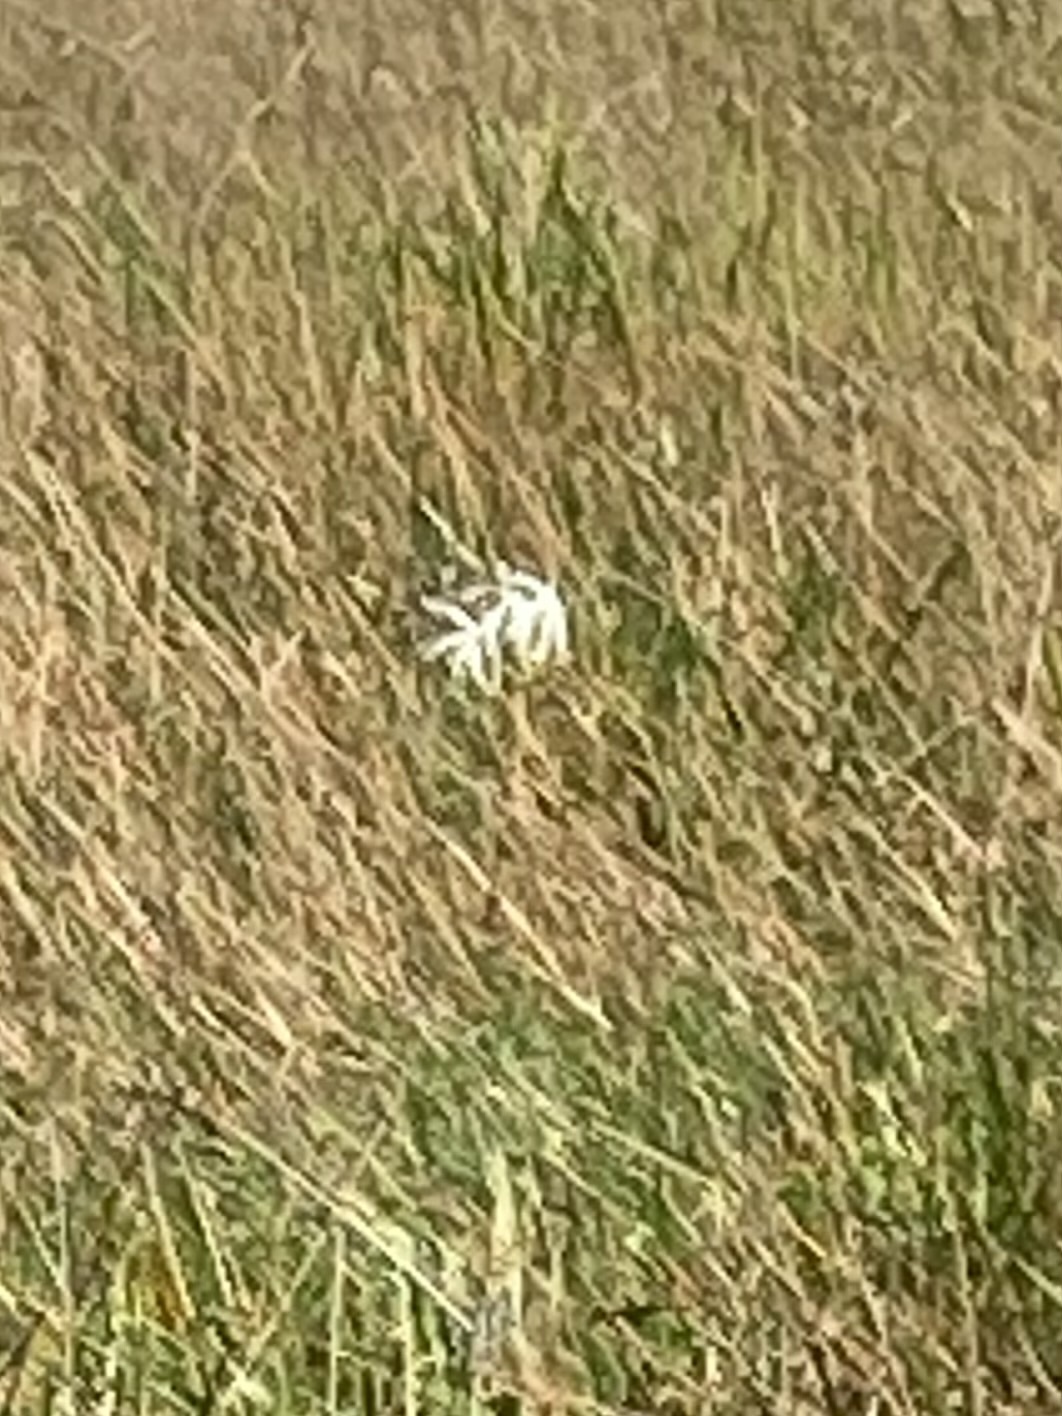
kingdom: Plantae
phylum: Tracheophyta
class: Liliopsida
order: Asparagales
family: Amaryllidaceae
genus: Crinum
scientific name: Crinum americanum
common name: Florida swamp-lily
